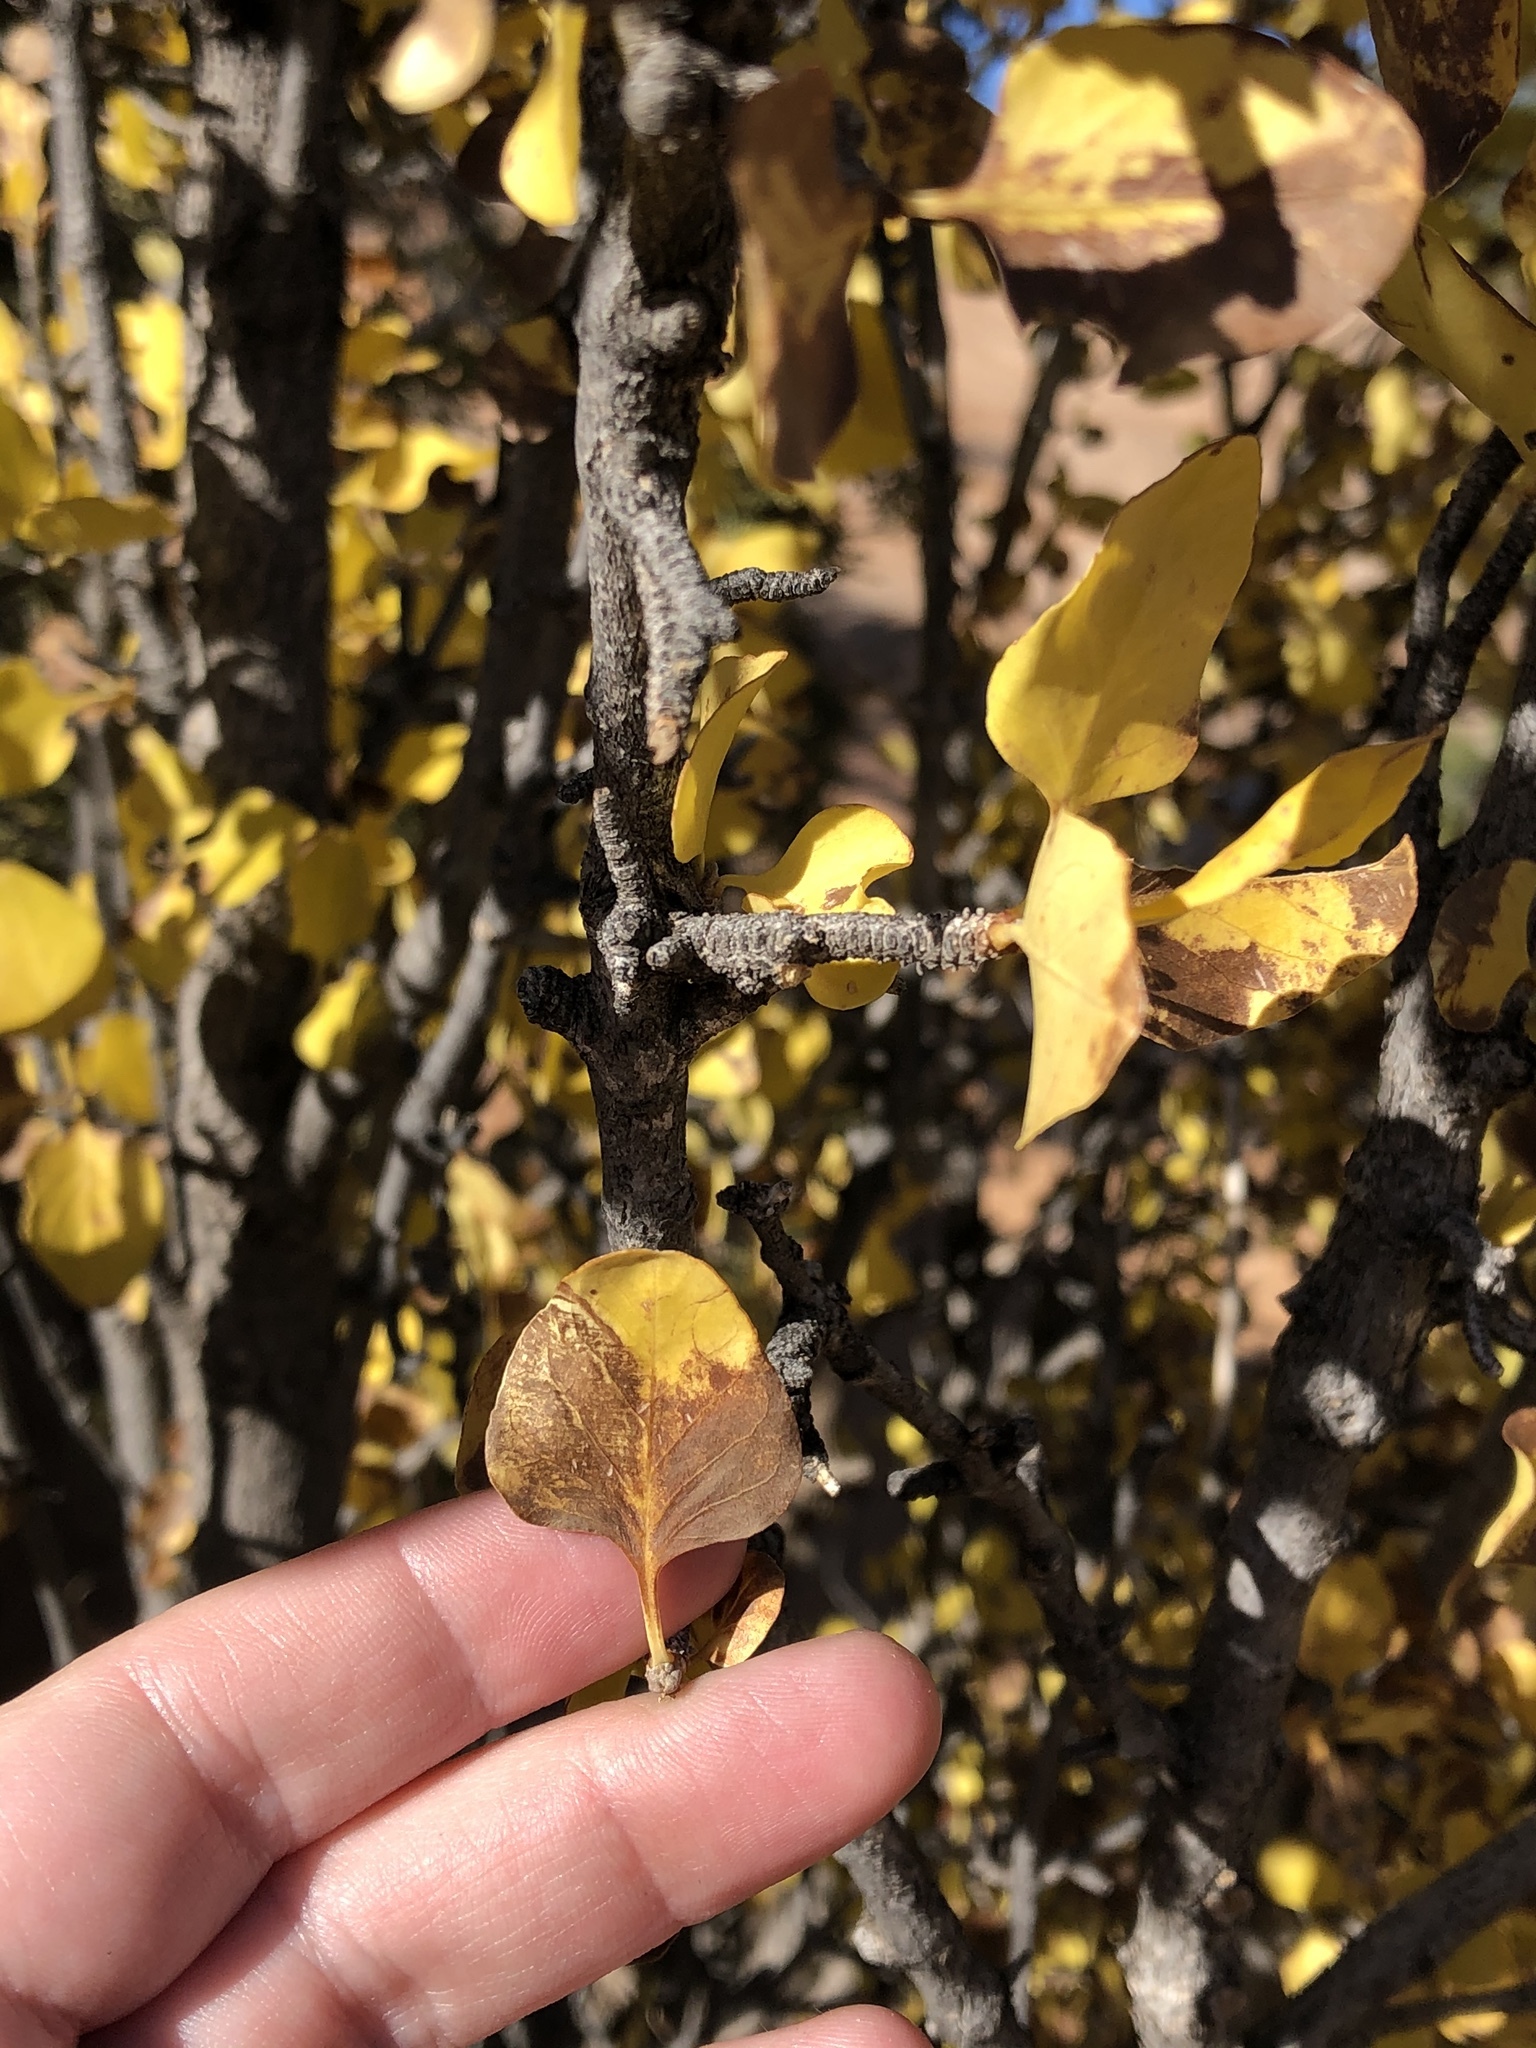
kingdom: Plantae
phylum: Tracheophyta
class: Magnoliopsida
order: Lamiales
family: Oleaceae
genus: Fraxinus
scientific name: Fraxinus anomala
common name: Utah ash
